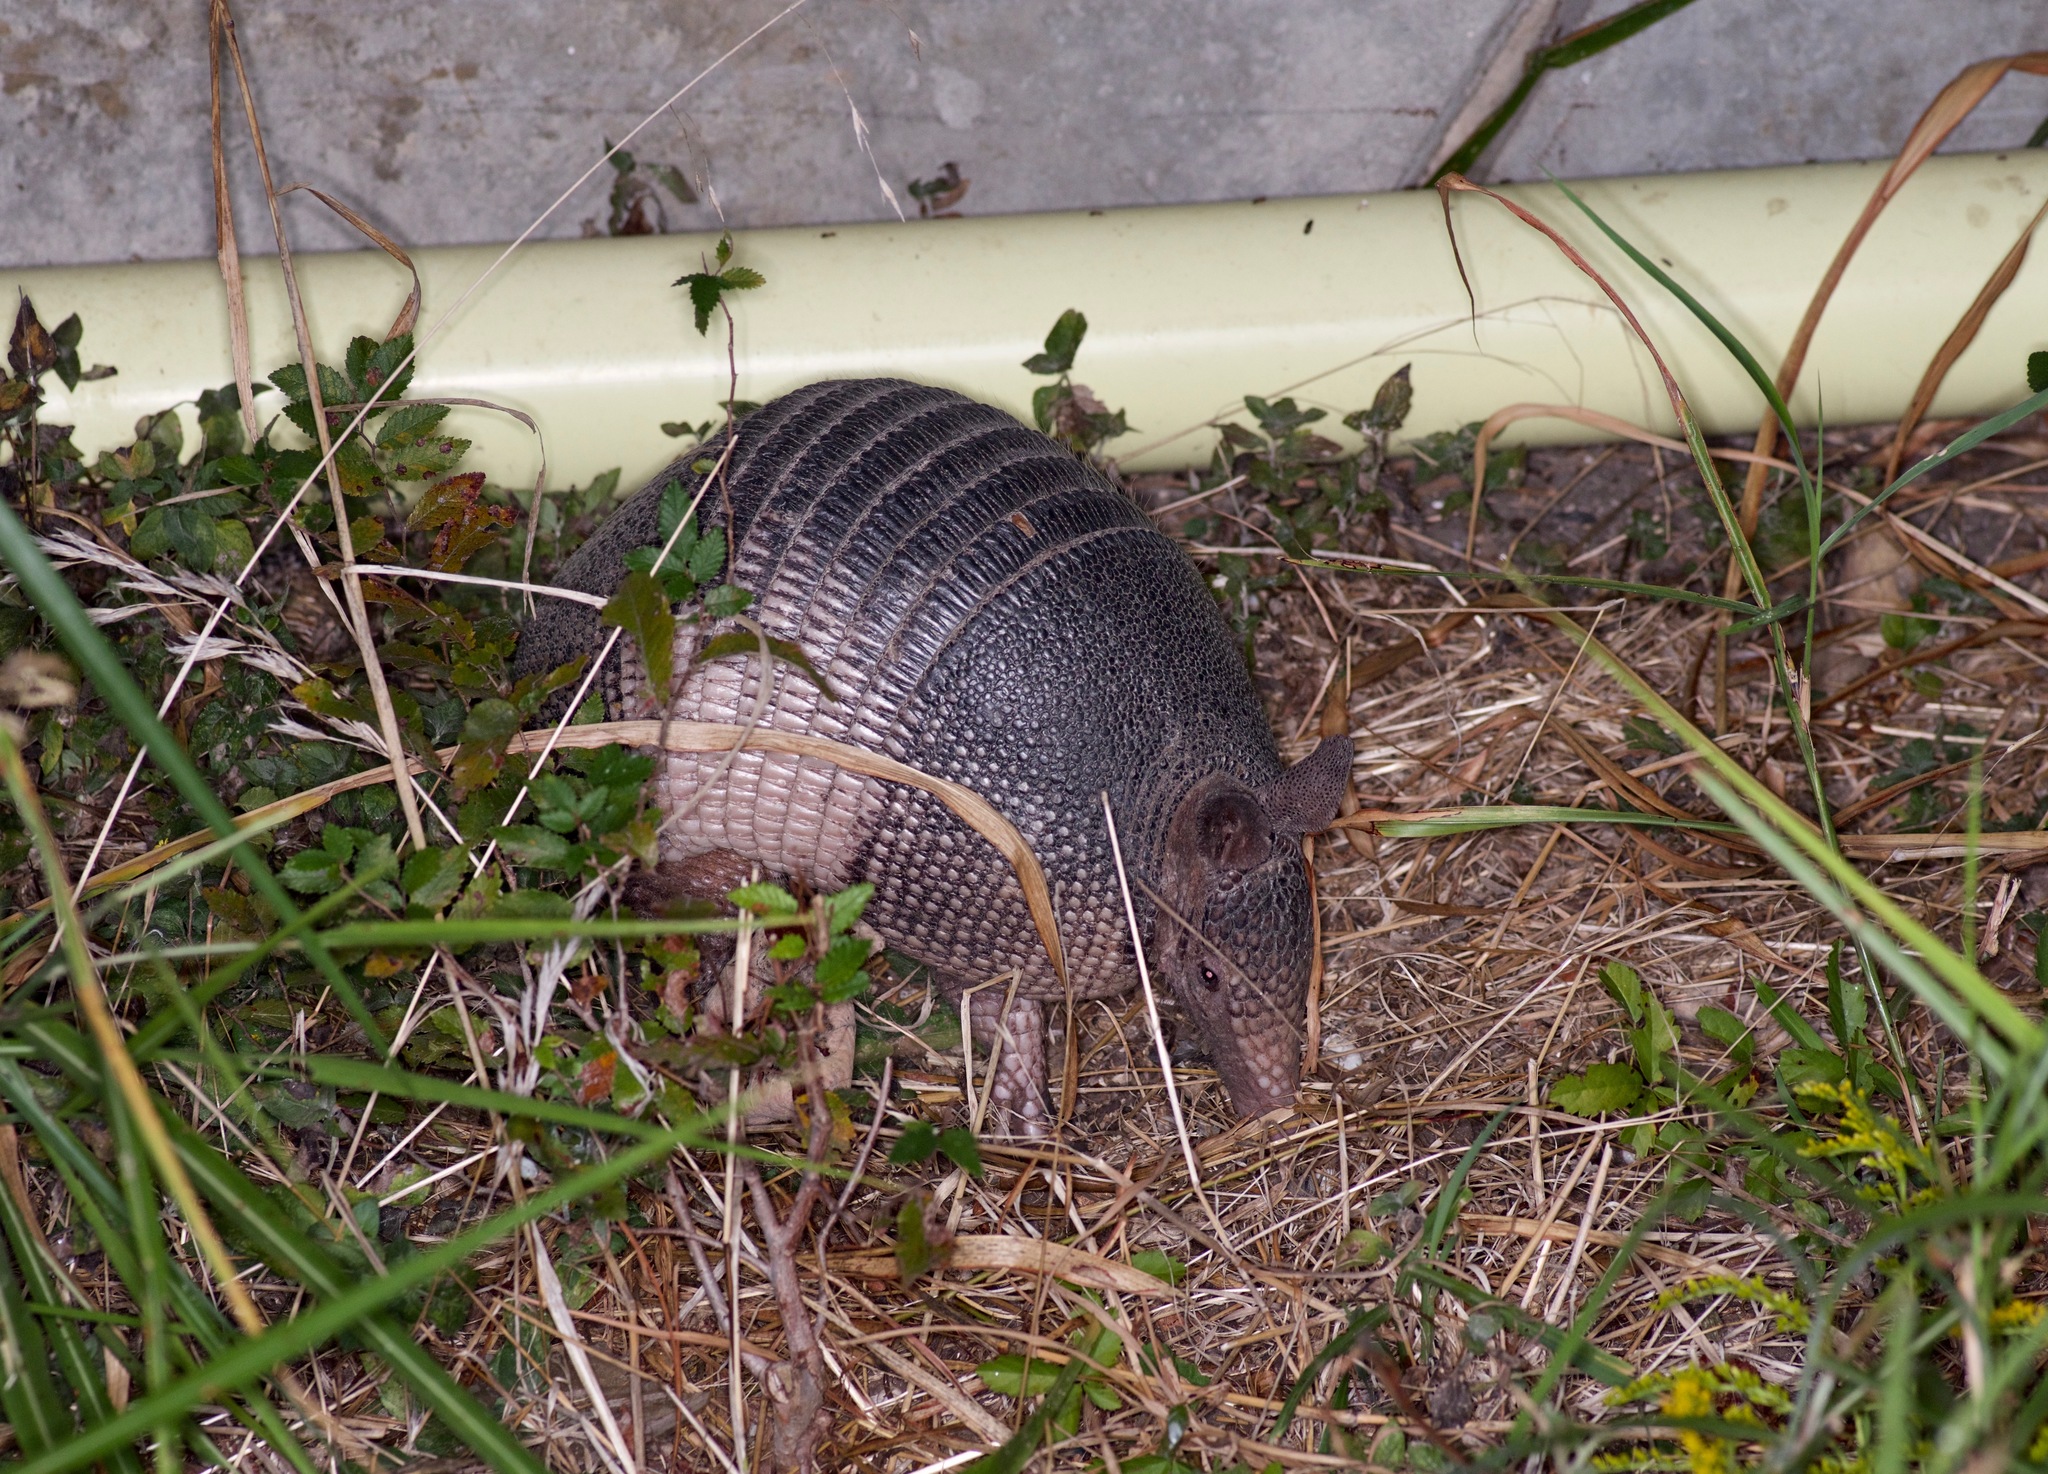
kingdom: Animalia
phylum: Chordata
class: Mammalia
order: Cingulata
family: Dasypodidae
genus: Dasypus
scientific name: Dasypus novemcinctus
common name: Nine-banded armadillo
